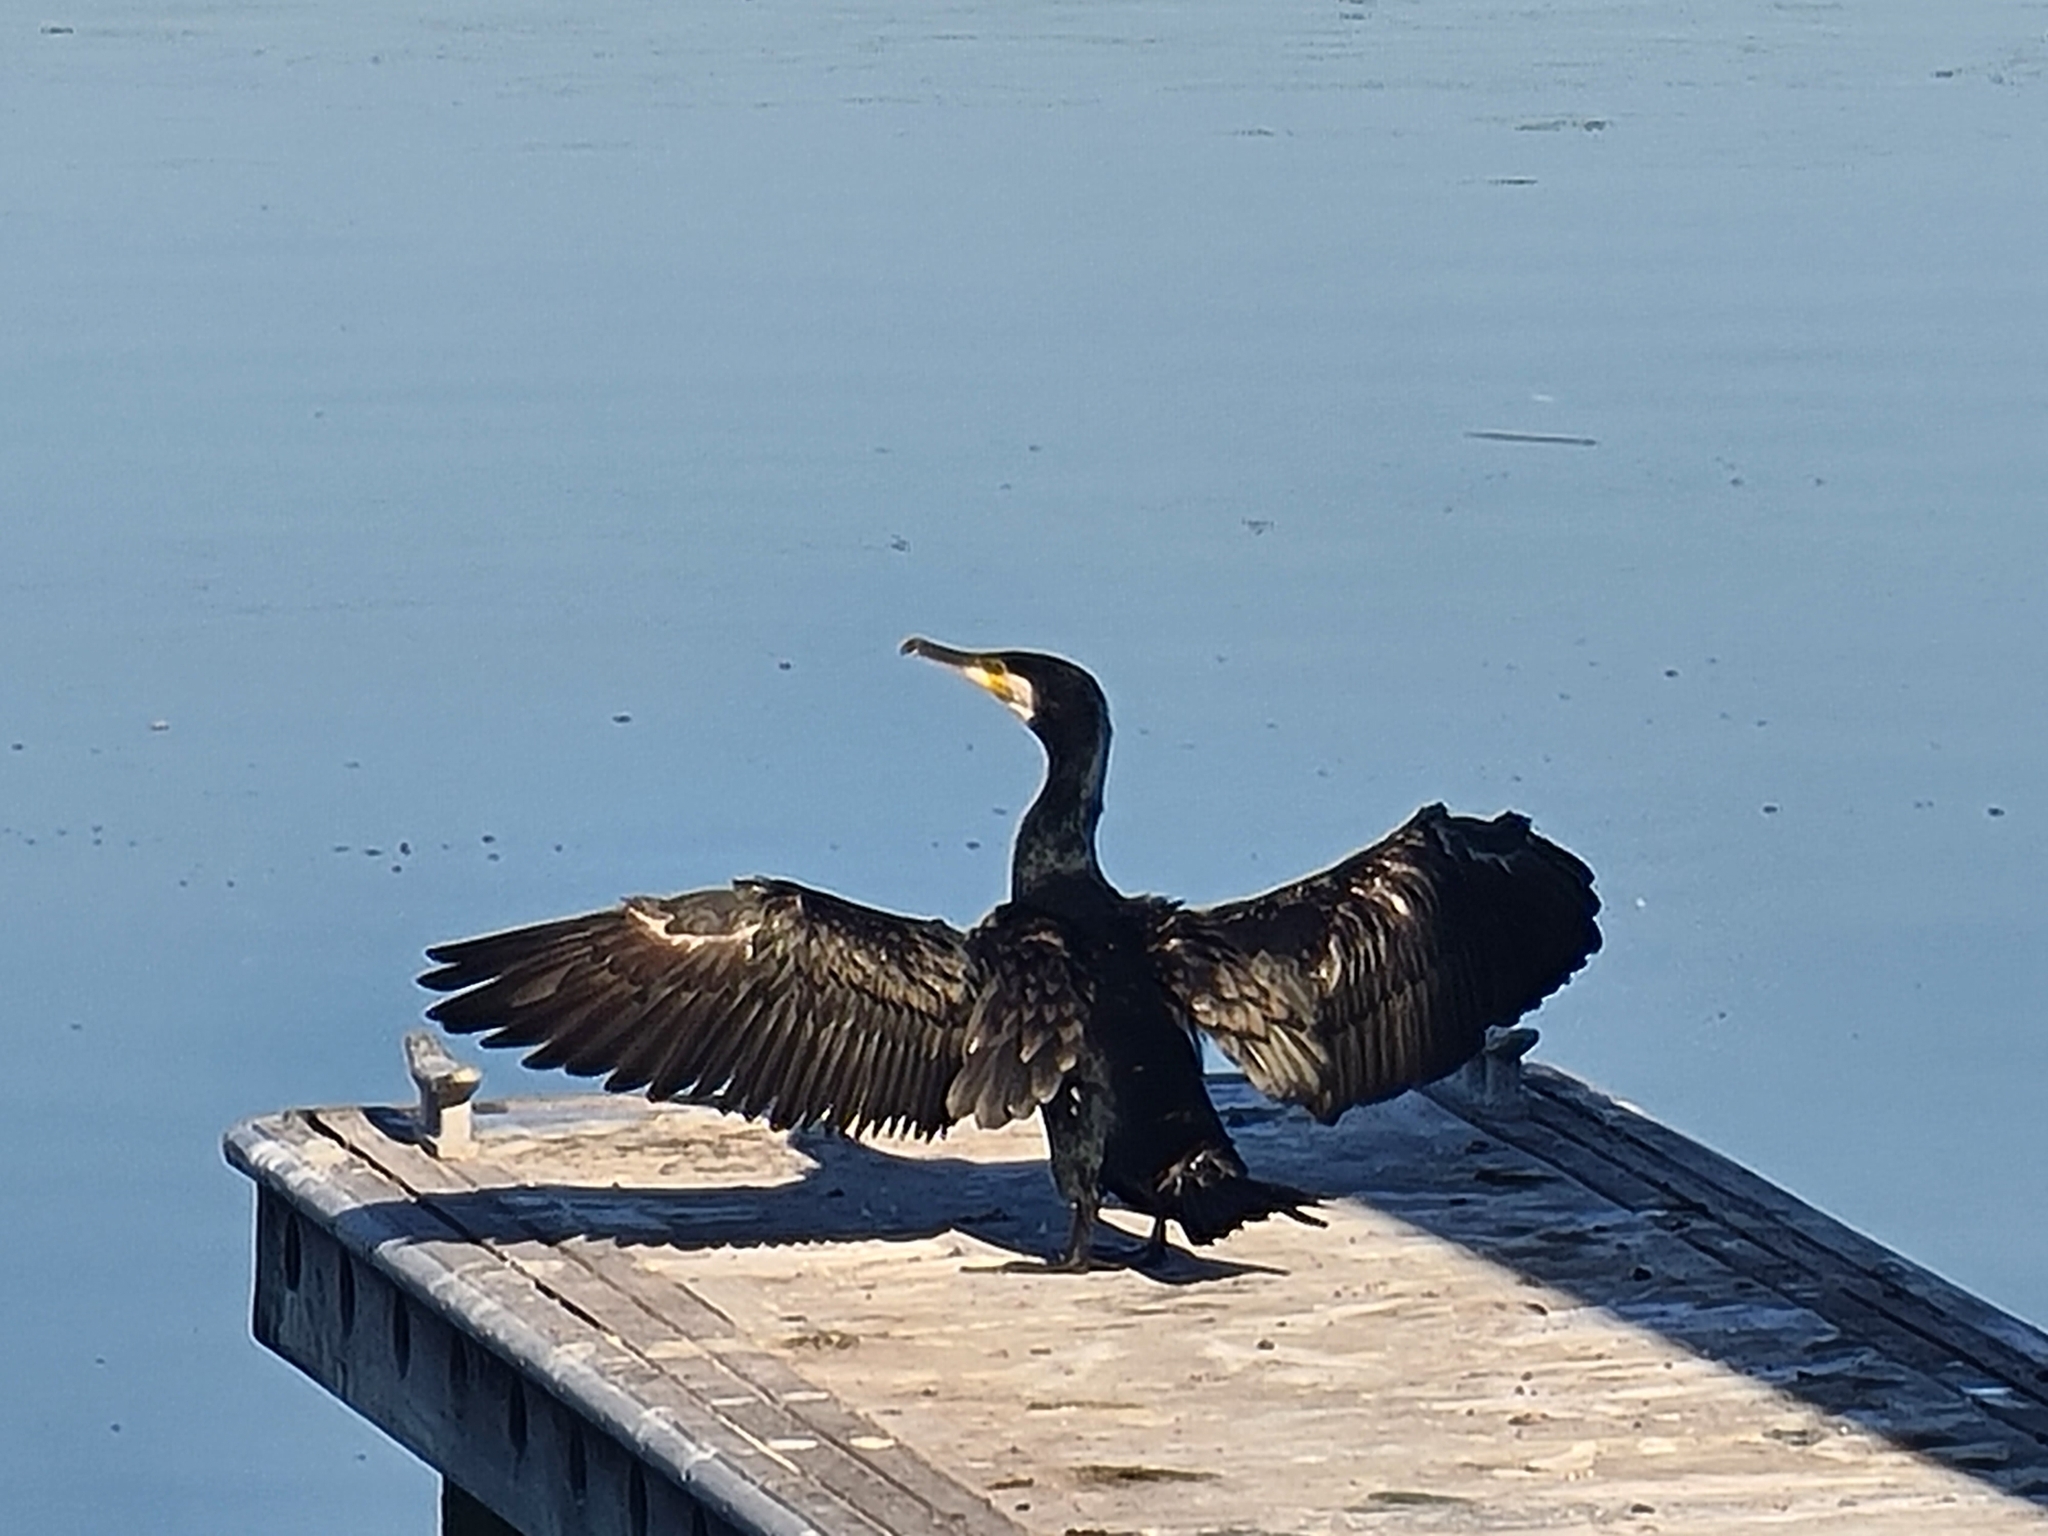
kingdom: Animalia
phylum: Chordata
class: Aves
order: Suliformes
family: Phalacrocoracidae
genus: Phalacrocorax
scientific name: Phalacrocorax carbo
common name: Great cormorant
